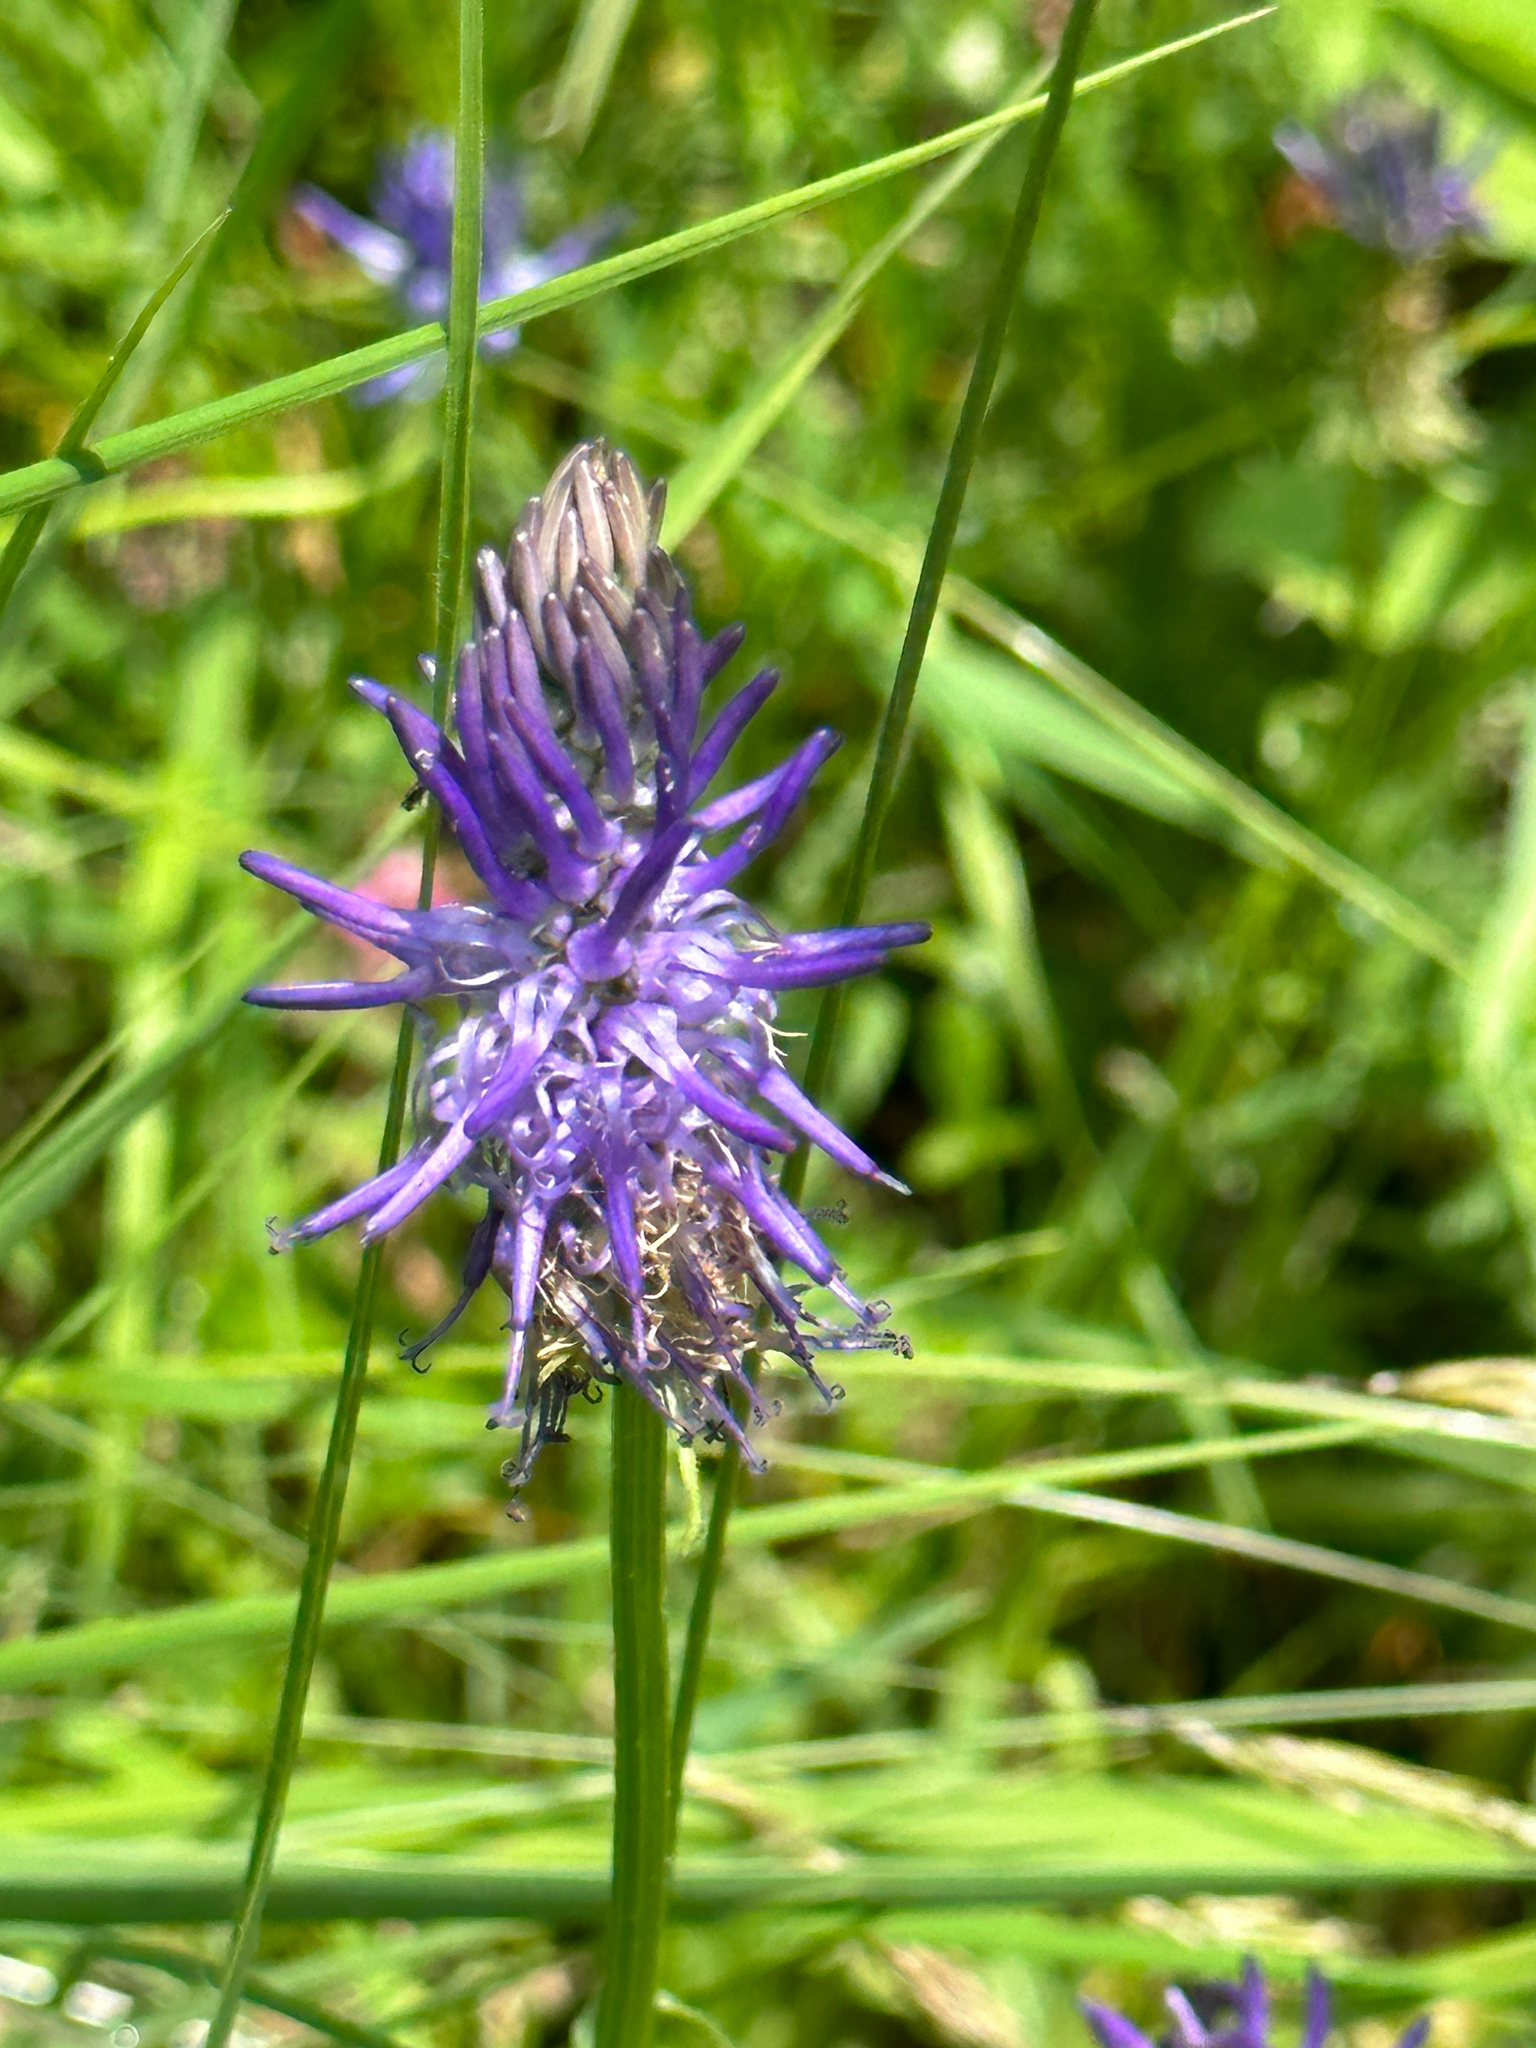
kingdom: Plantae
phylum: Tracheophyta
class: Magnoliopsida
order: Asterales
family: Campanulaceae
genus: Phyteuma
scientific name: Phyteuma betonicifolium
